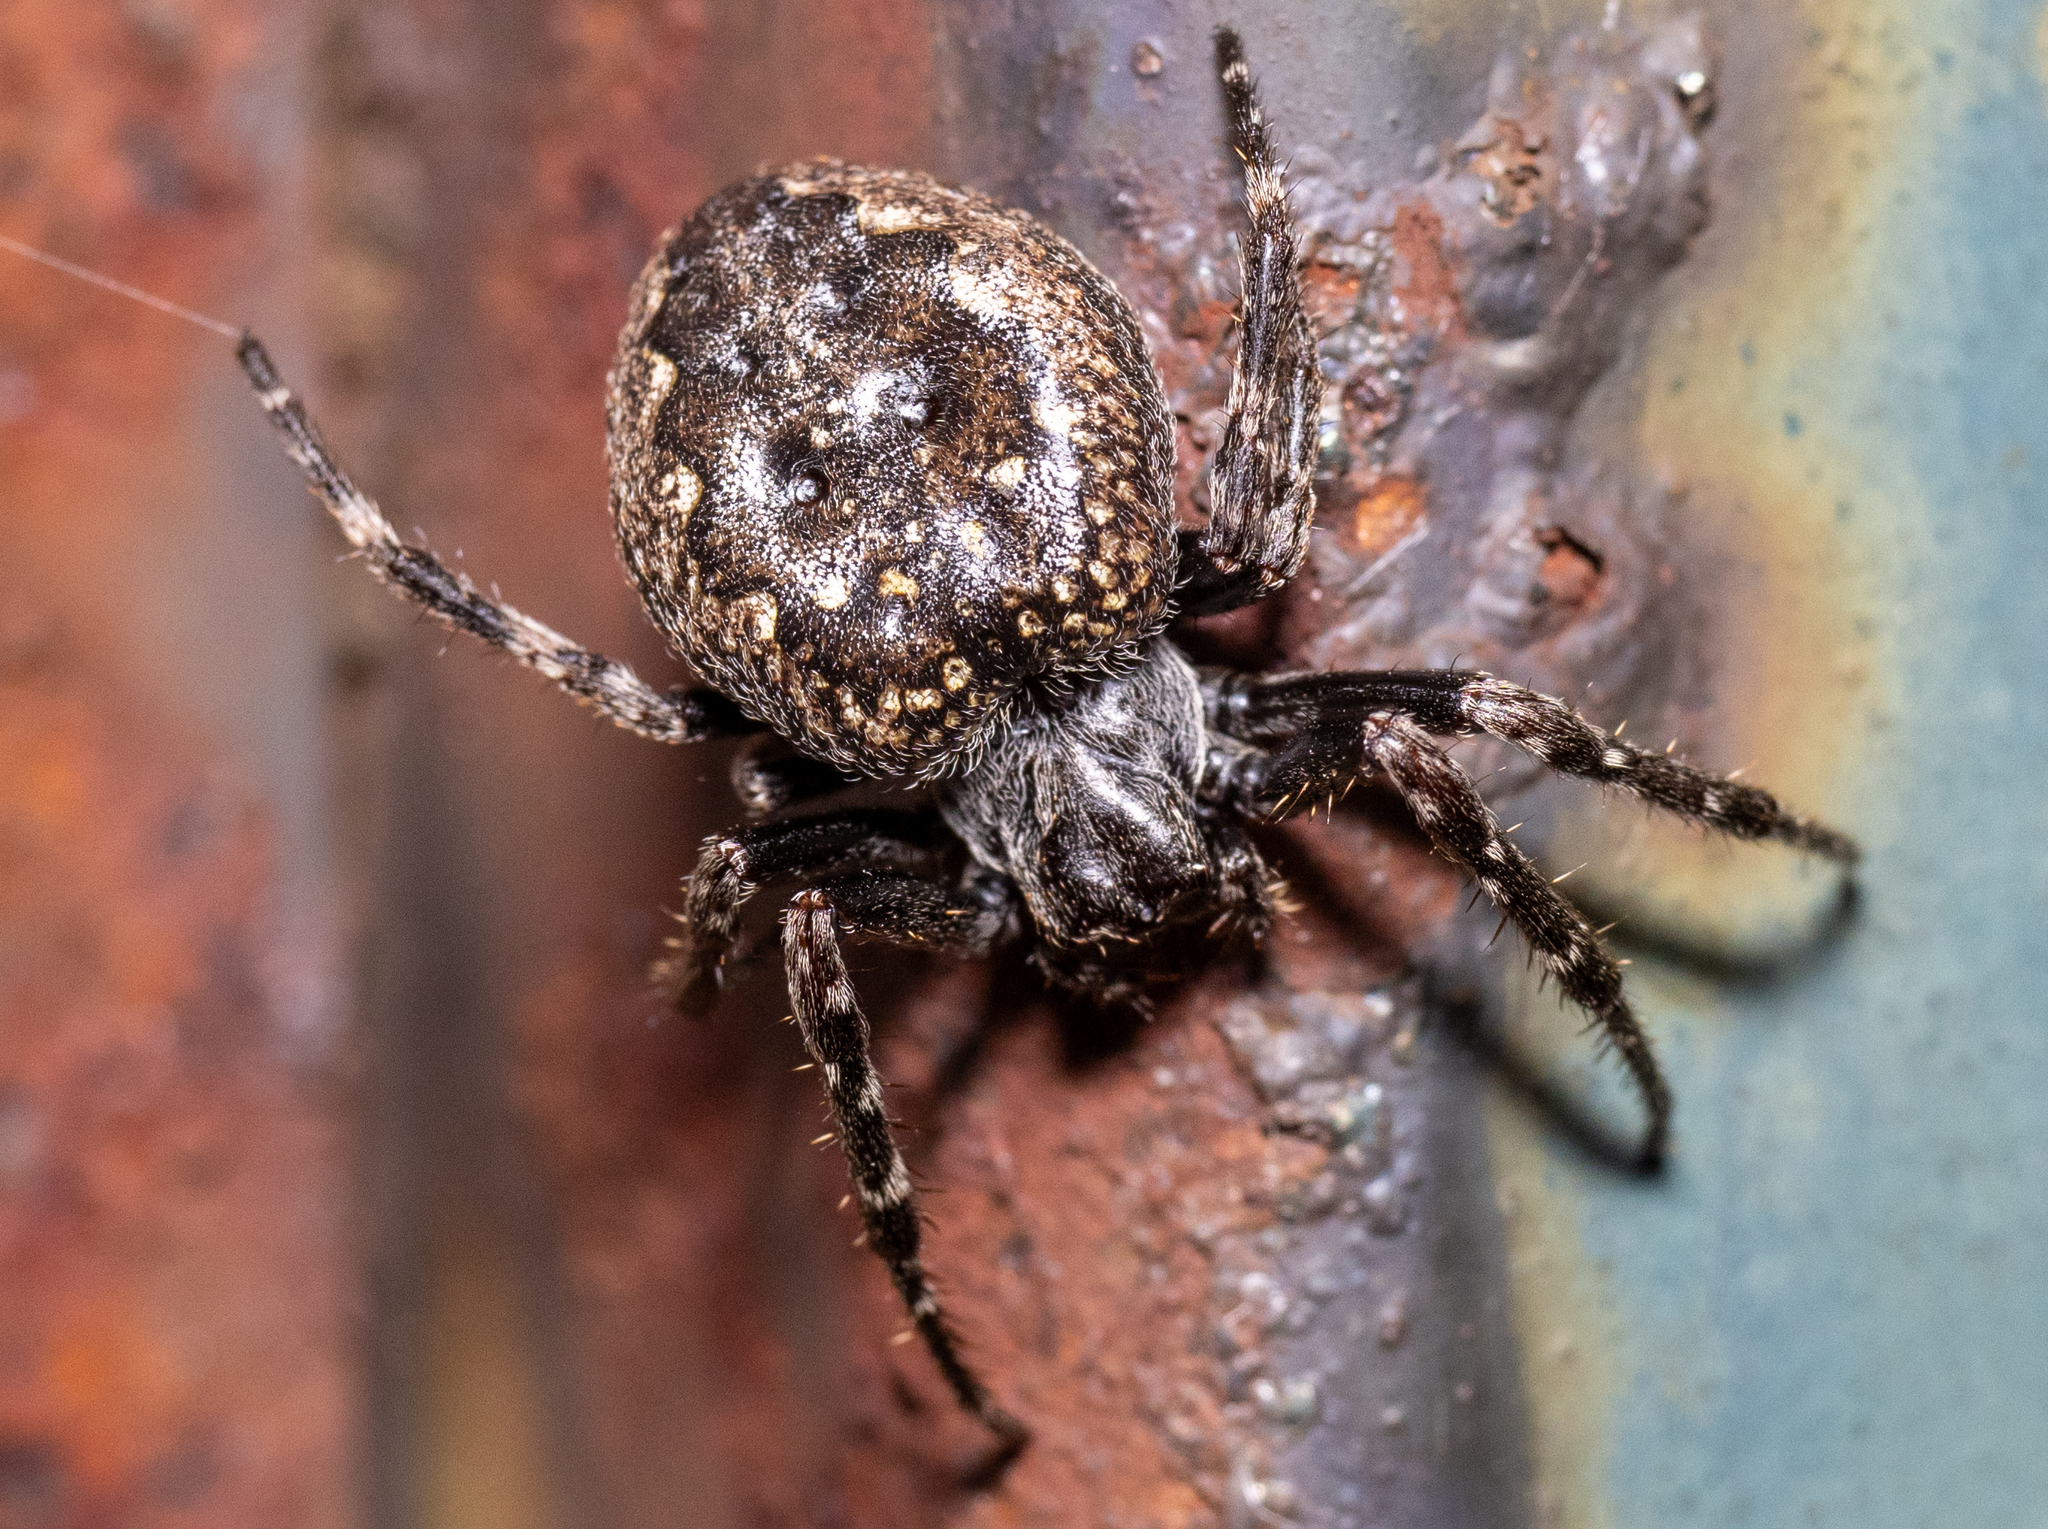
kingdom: Animalia
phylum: Arthropoda
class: Arachnida
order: Araneae
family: Araneidae
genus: Nuctenea
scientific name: Nuctenea umbratica
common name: Toad spider
